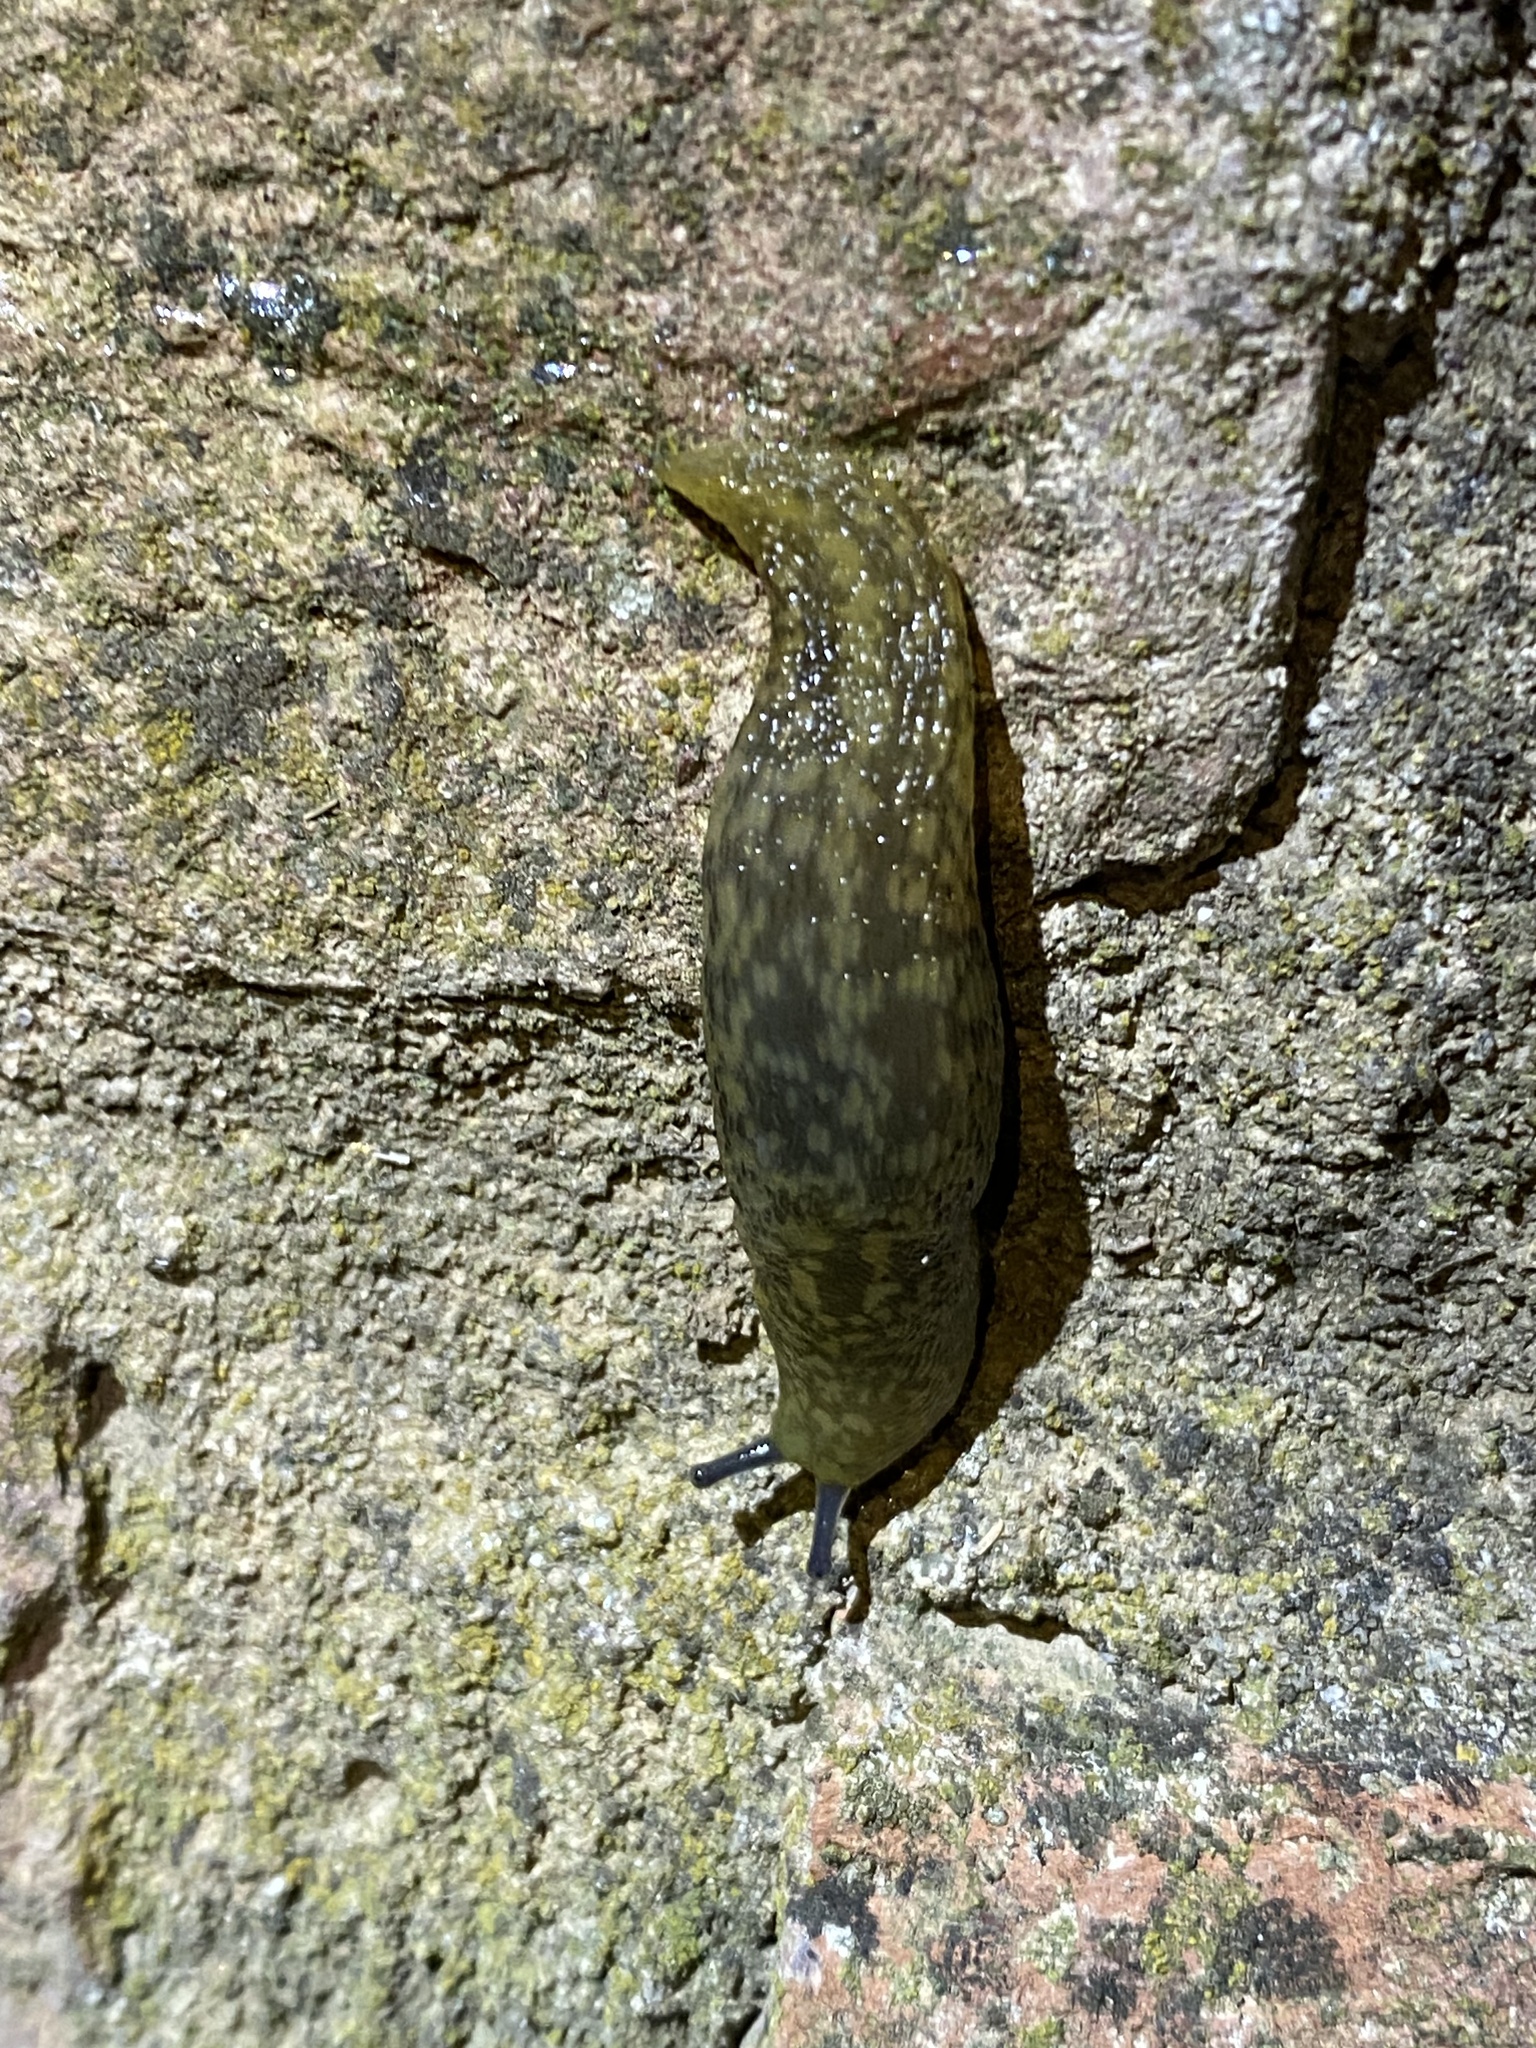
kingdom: Animalia
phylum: Mollusca
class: Gastropoda
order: Stylommatophora
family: Limacidae
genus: Limacus
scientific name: Limacus flavus
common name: Yellow gardenslug
